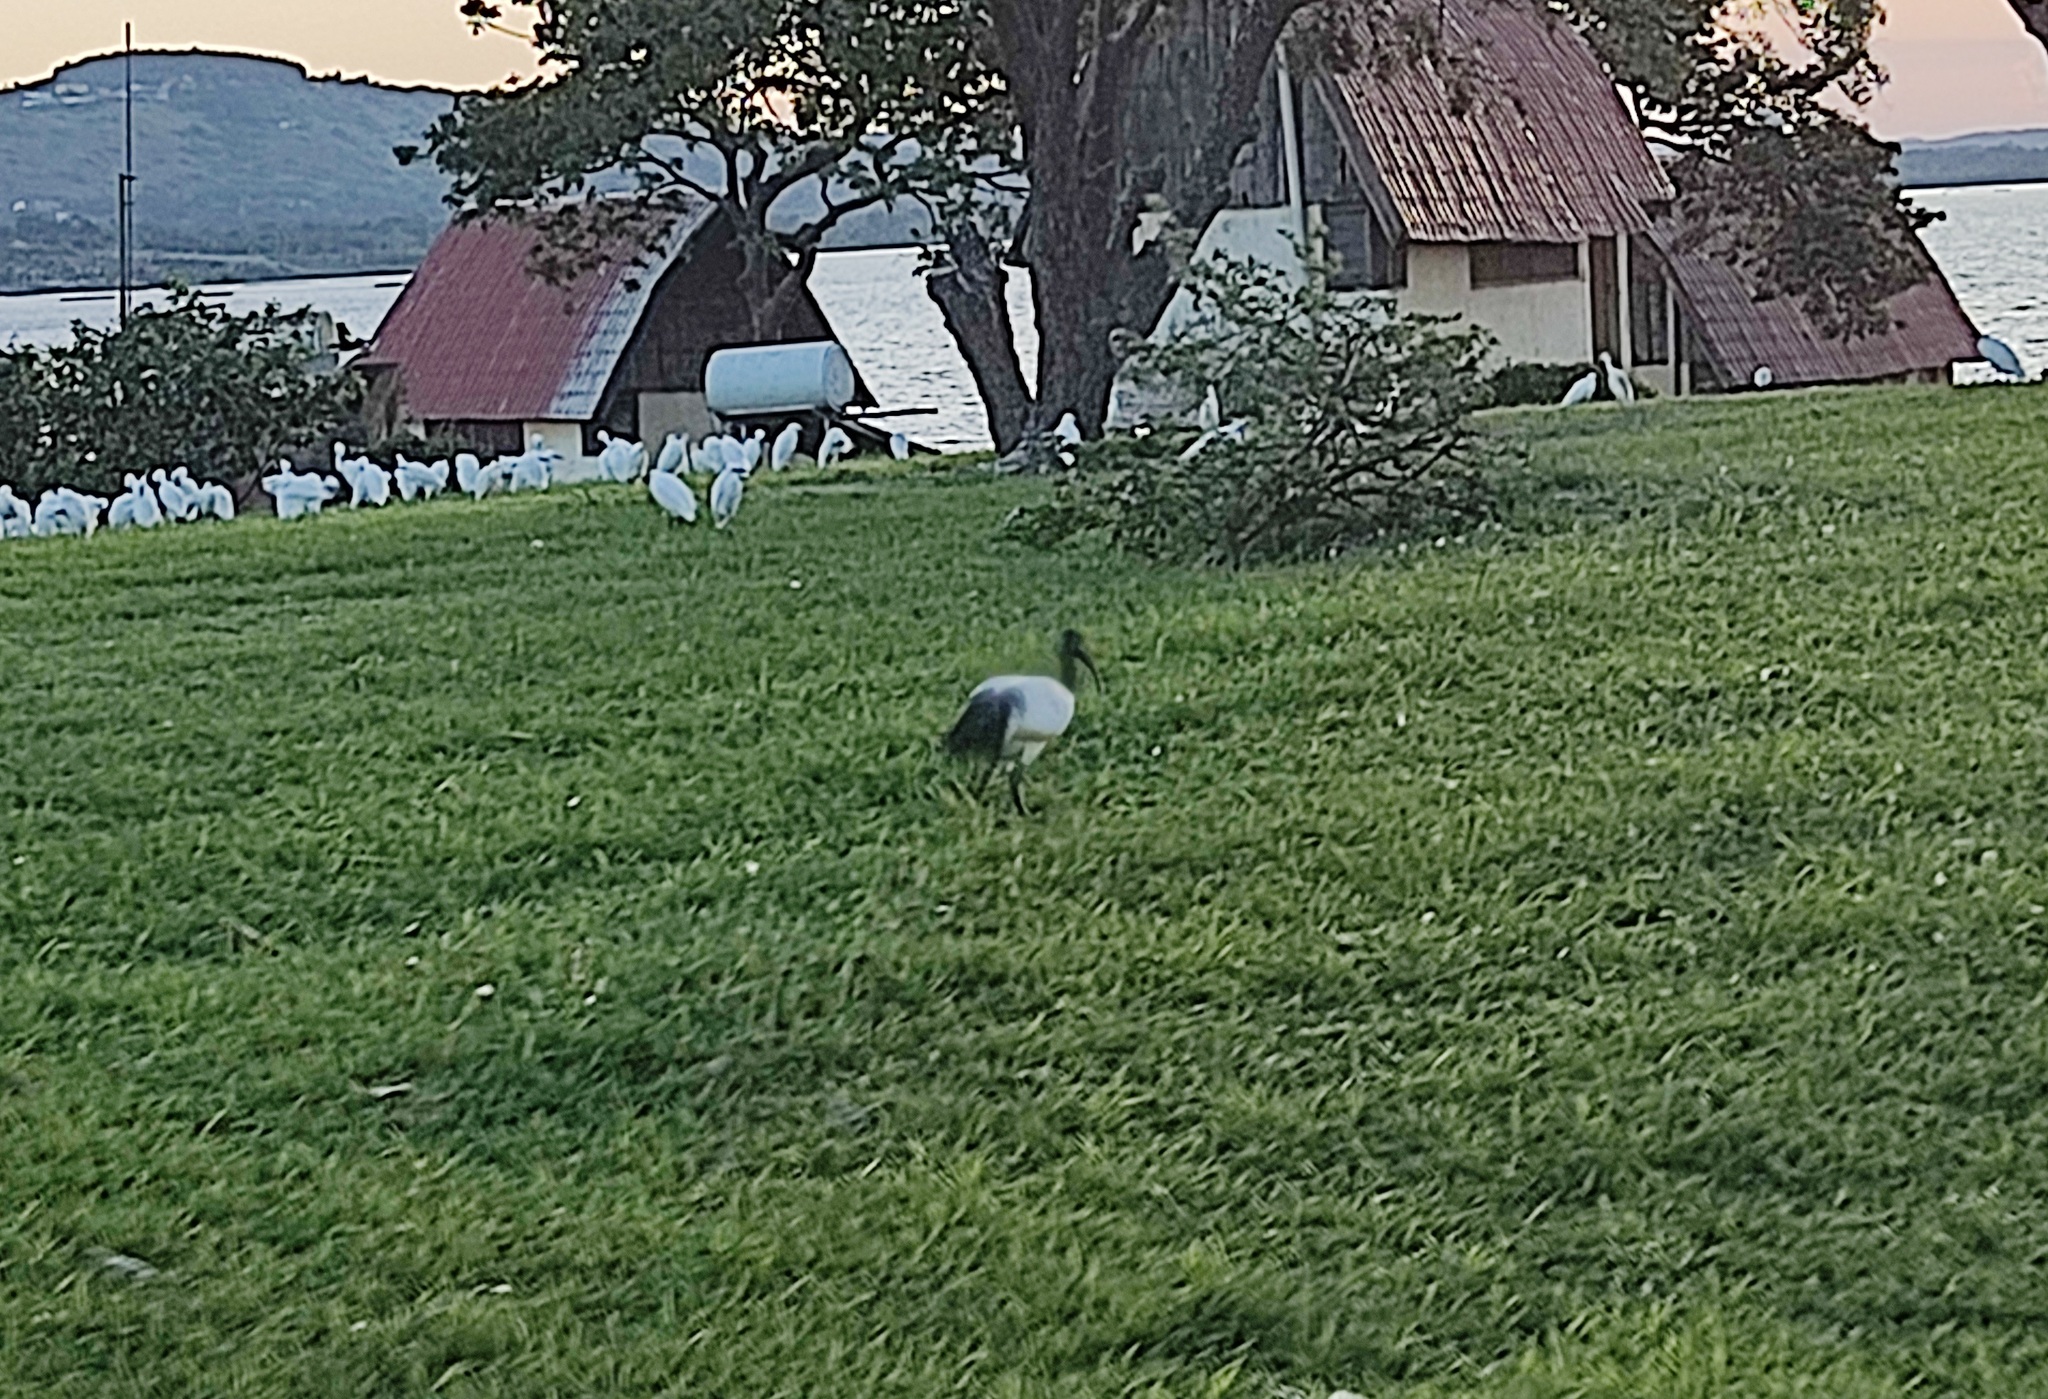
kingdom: Animalia
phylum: Chordata
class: Aves
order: Pelecaniformes
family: Threskiornithidae
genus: Threskiornis
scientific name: Threskiornis aethiopicus
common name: Sacred ibis
